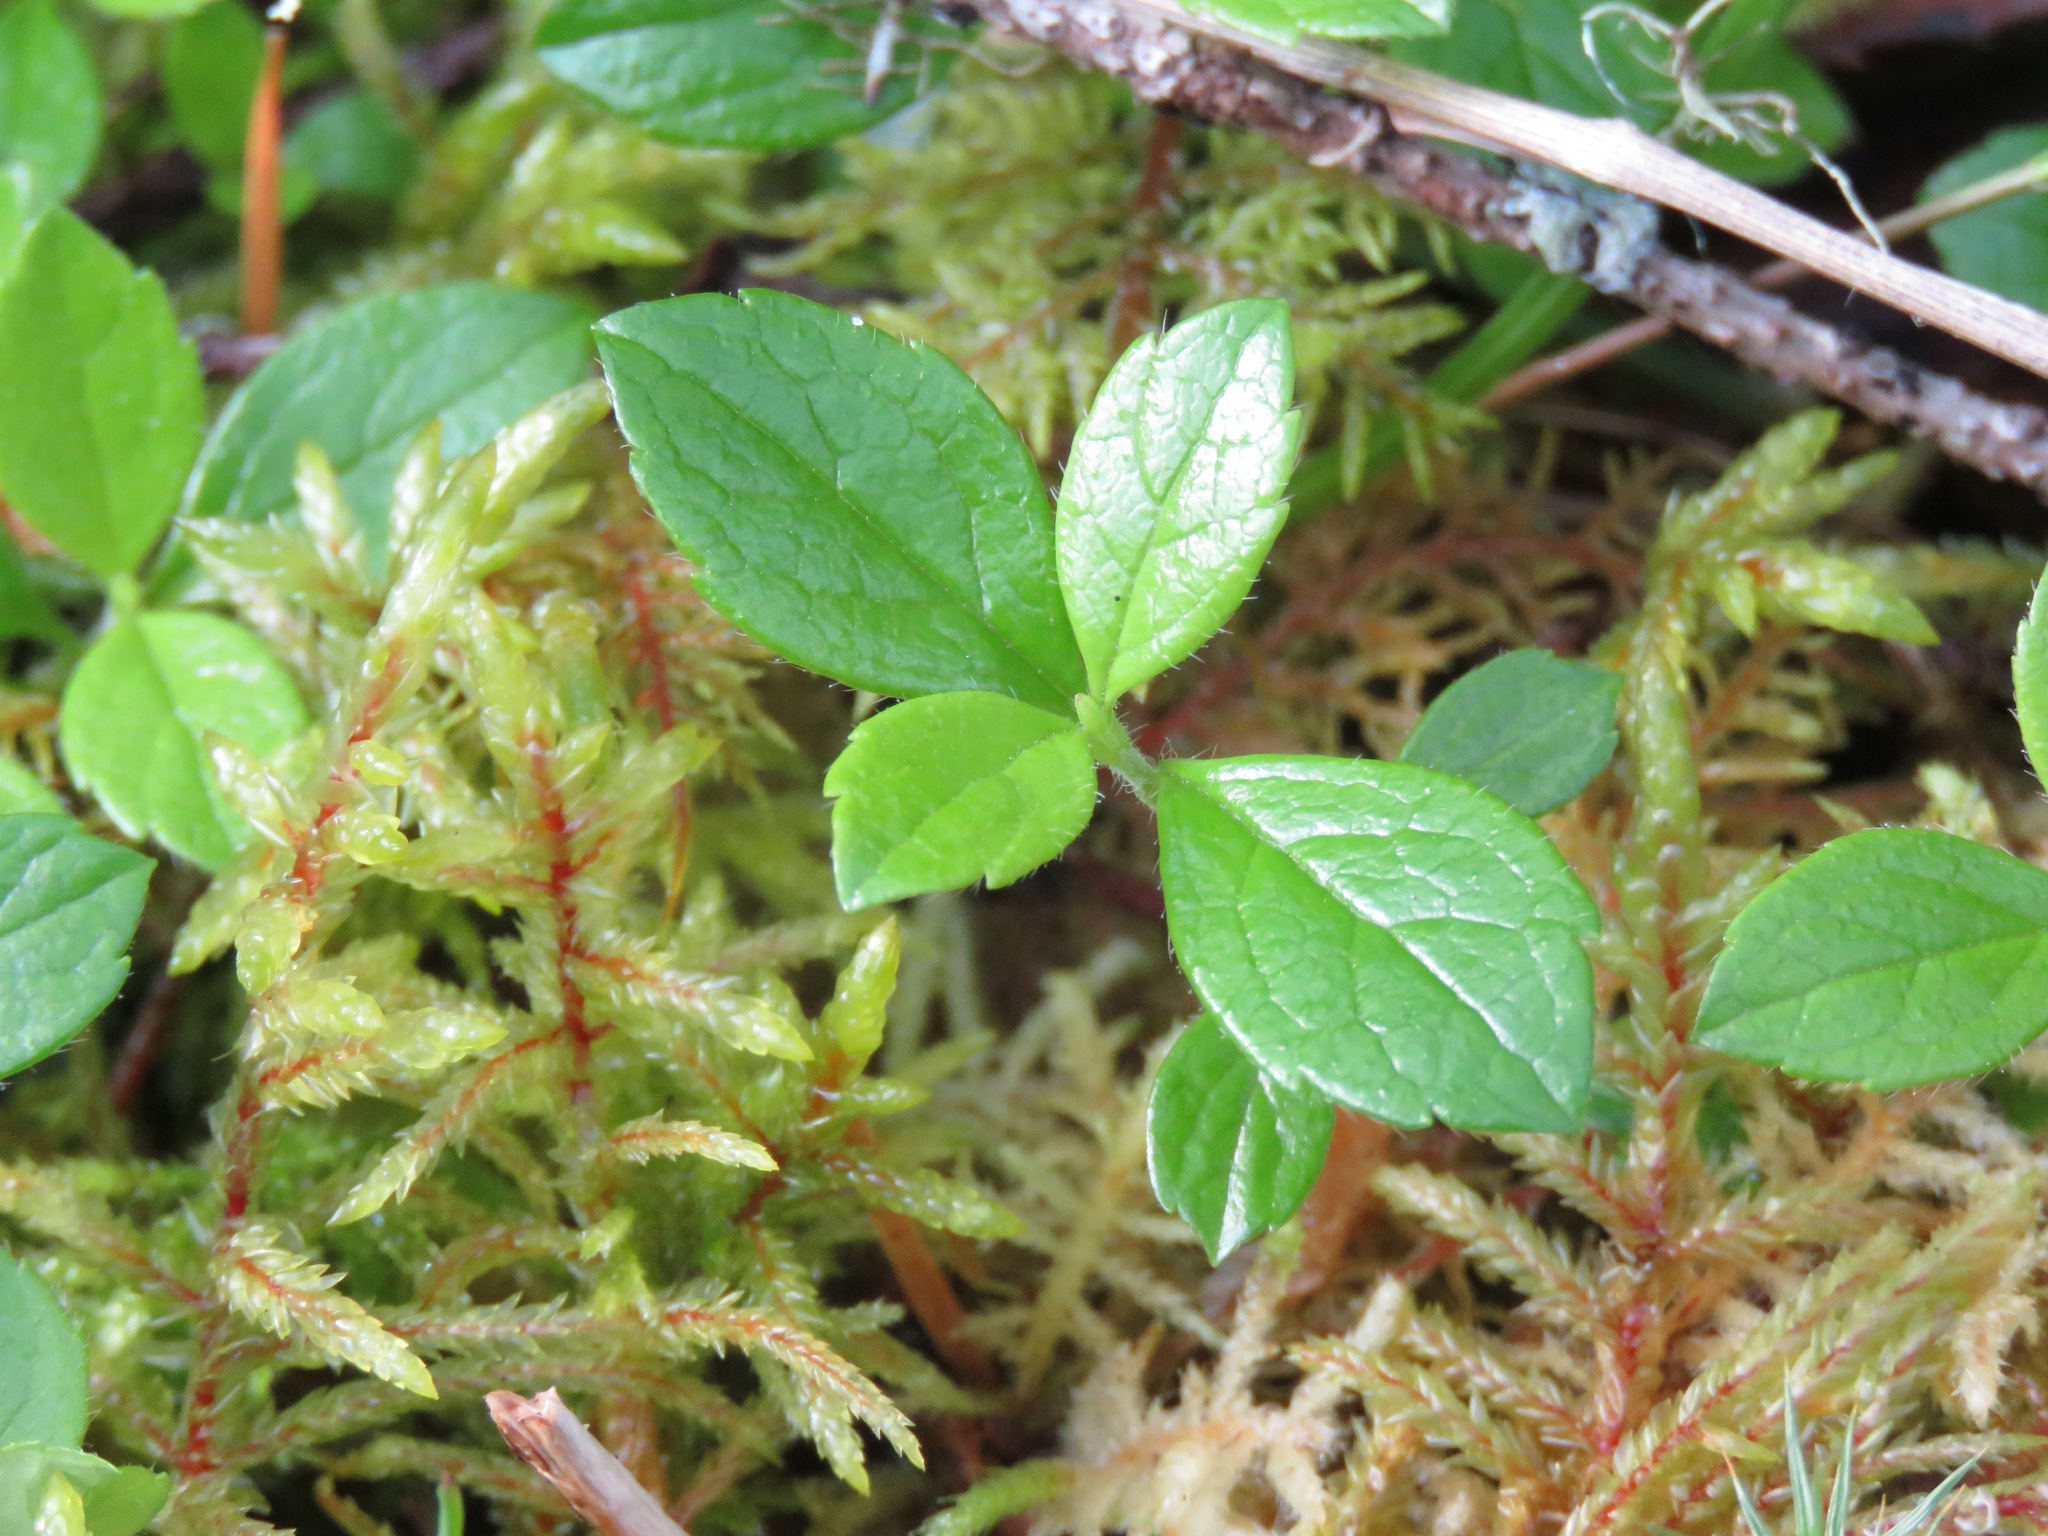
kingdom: Plantae
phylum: Tracheophyta
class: Magnoliopsida
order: Dipsacales
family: Caprifoliaceae
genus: Linnaea
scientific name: Linnaea borealis
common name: Twinflower
